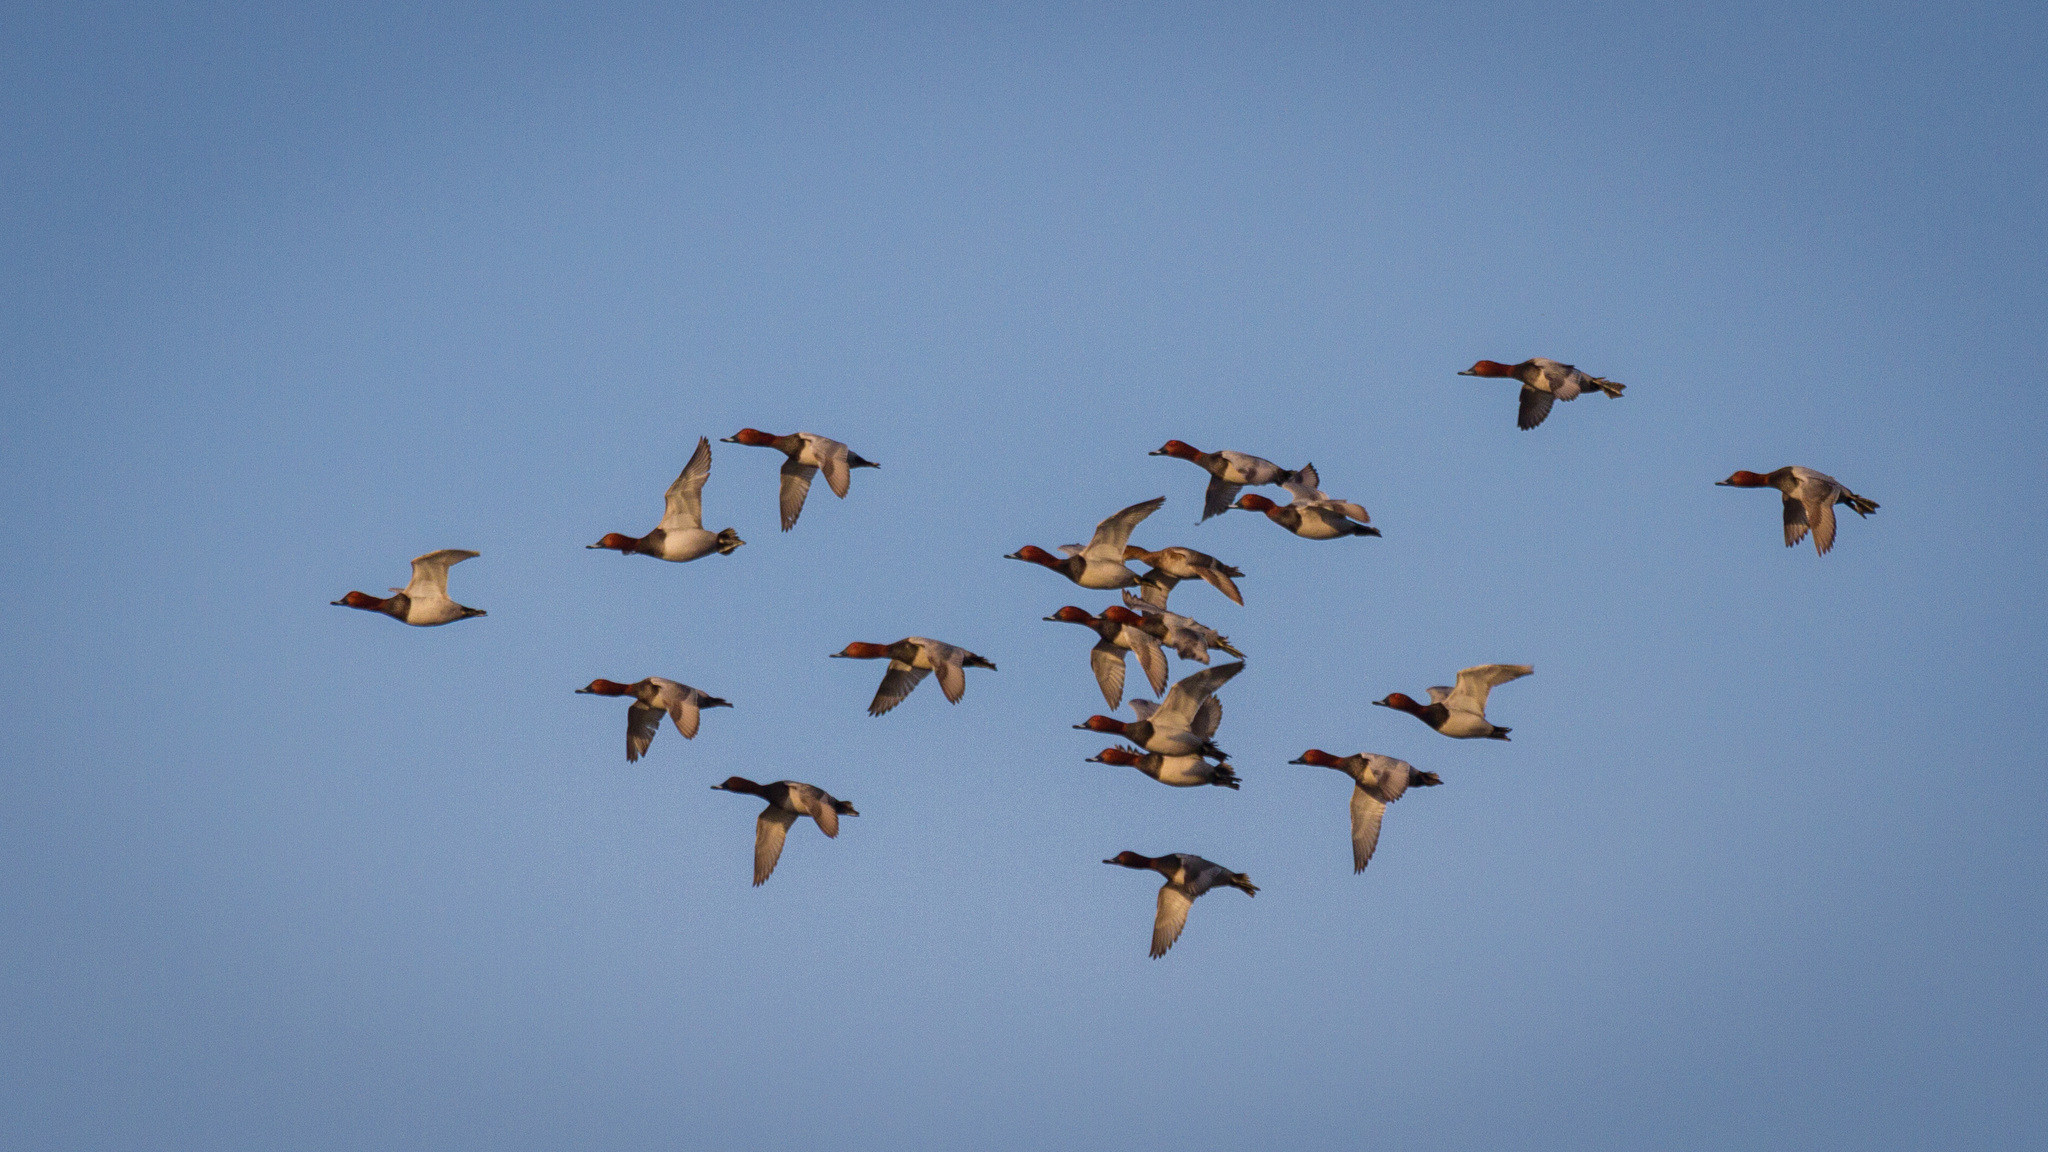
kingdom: Animalia
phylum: Chordata
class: Aves
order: Anseriformes
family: Anatidae
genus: Aythya
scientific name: Aythya ferina
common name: Common pochard
